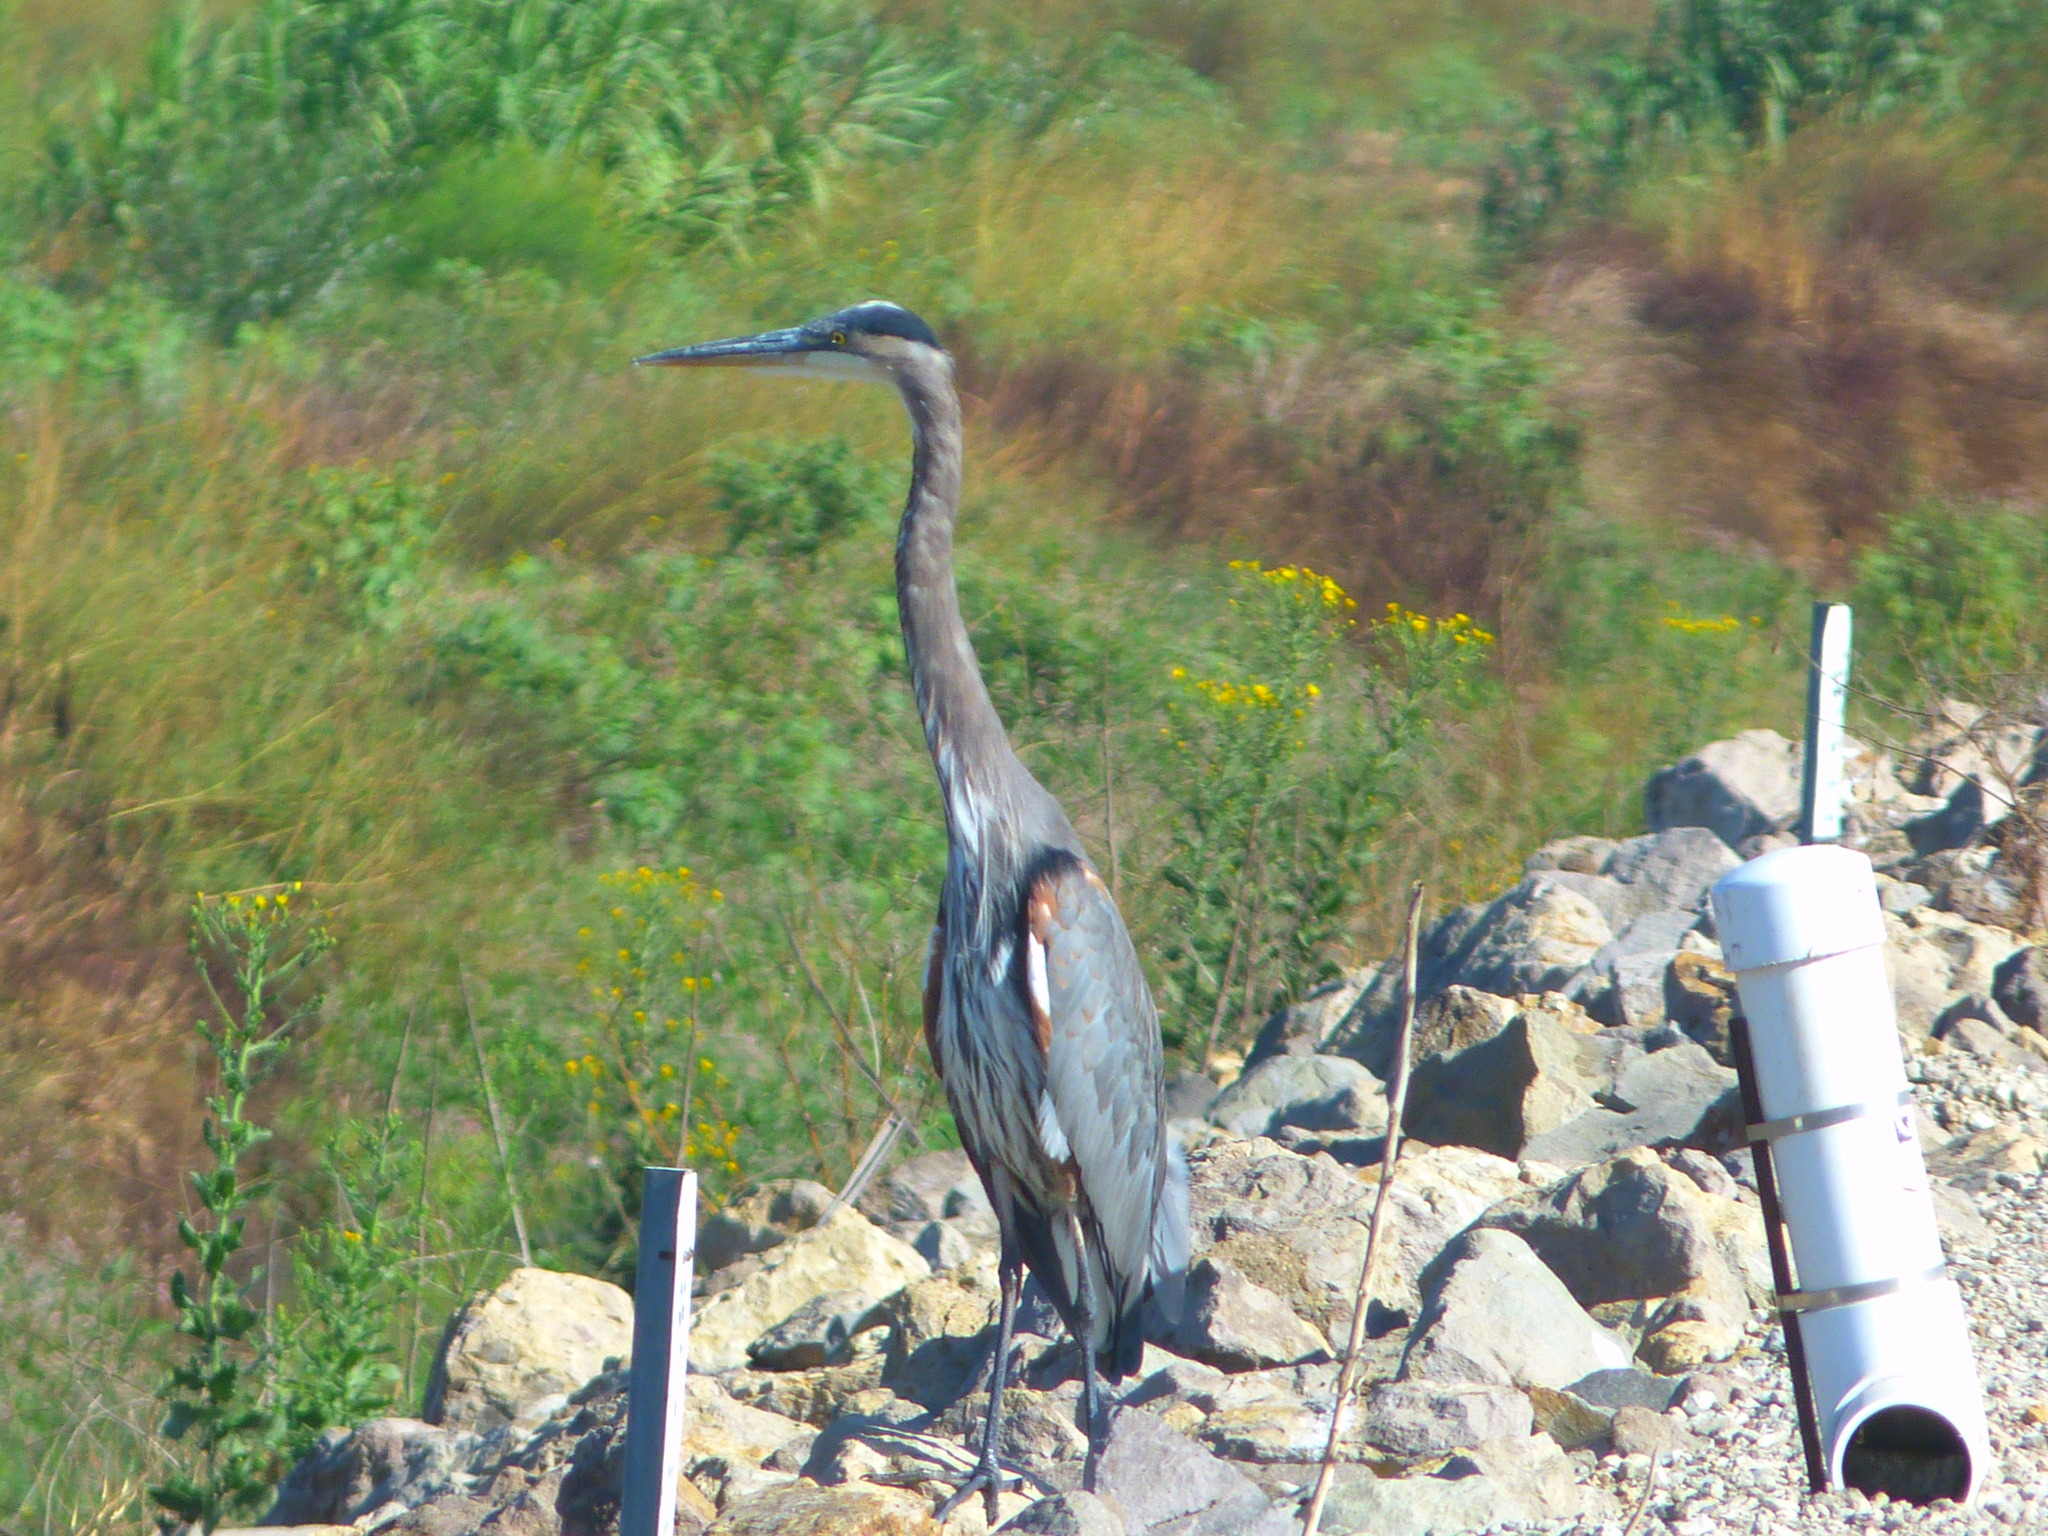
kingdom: Animalia
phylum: Chordata
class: Aves
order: Pelecaniformes
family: Ardeidae
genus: Ardea
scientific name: Ardea herodias
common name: Great blue heron
